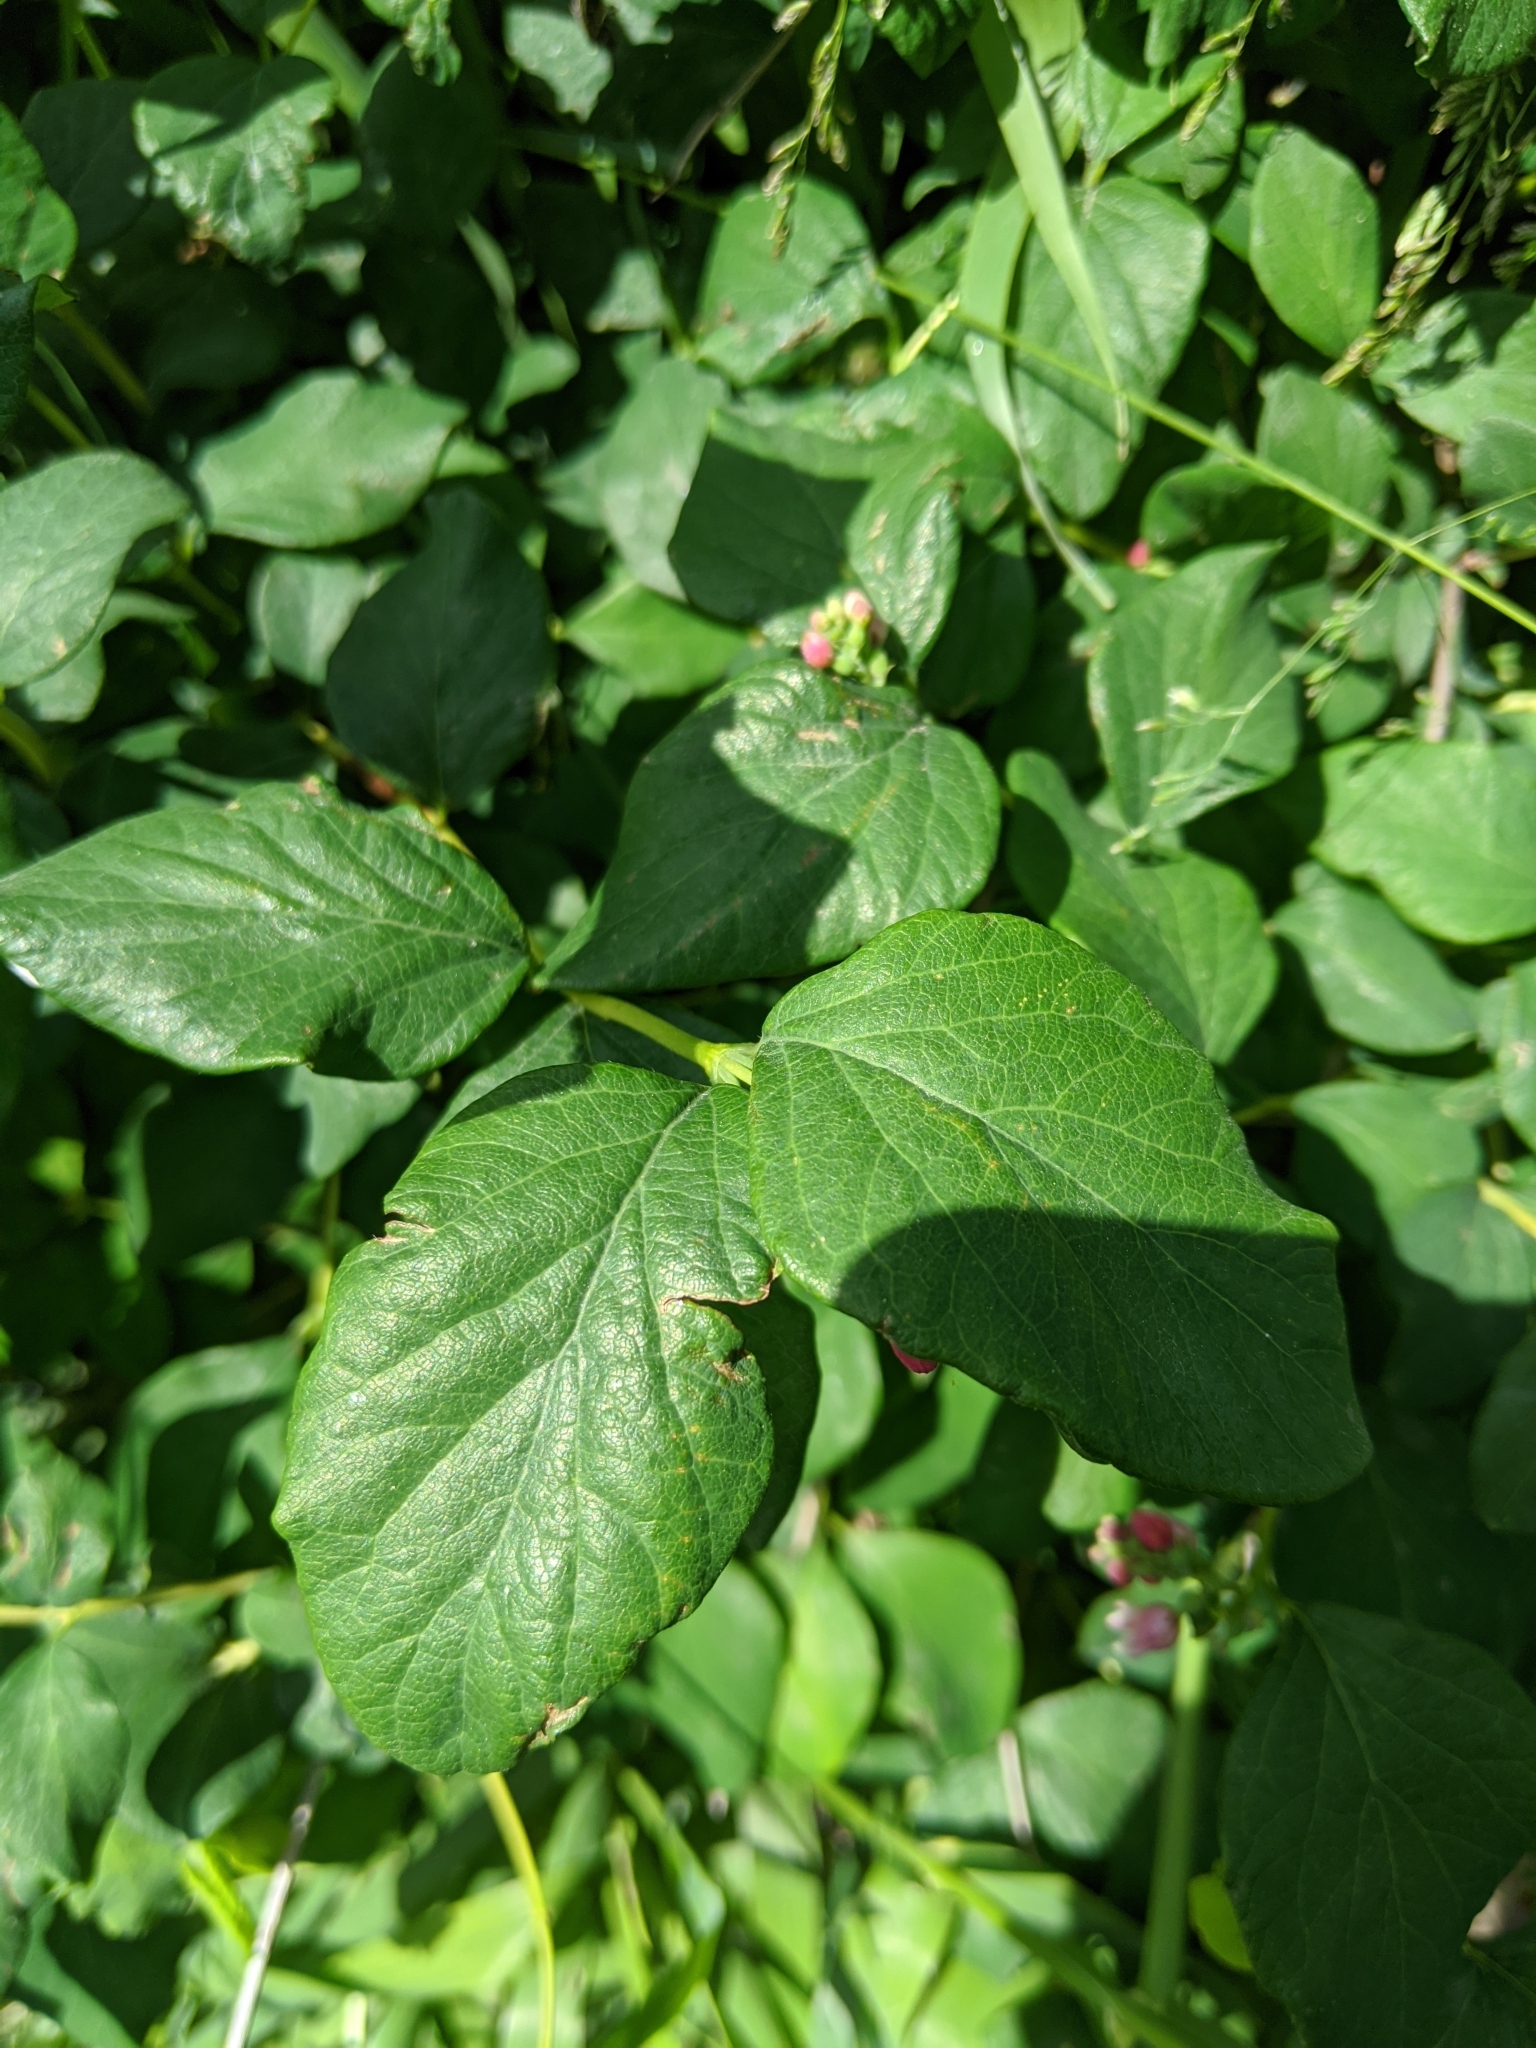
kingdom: Plantae
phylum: Tracheophyta
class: Magnoliopsida
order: Dipsacales
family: Caprifoliaceae
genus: Symphoricarpos
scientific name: Symphoricarpos albus
